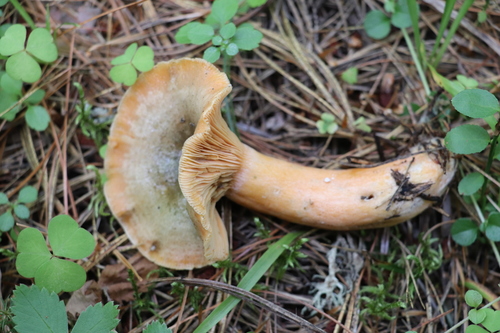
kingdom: Fungi
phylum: Basidiomycota
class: Agaricomycetes
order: Russulales
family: Russulaceae
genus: Lactarius
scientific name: Lactarius deliciosus
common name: Saffron milk-cap
